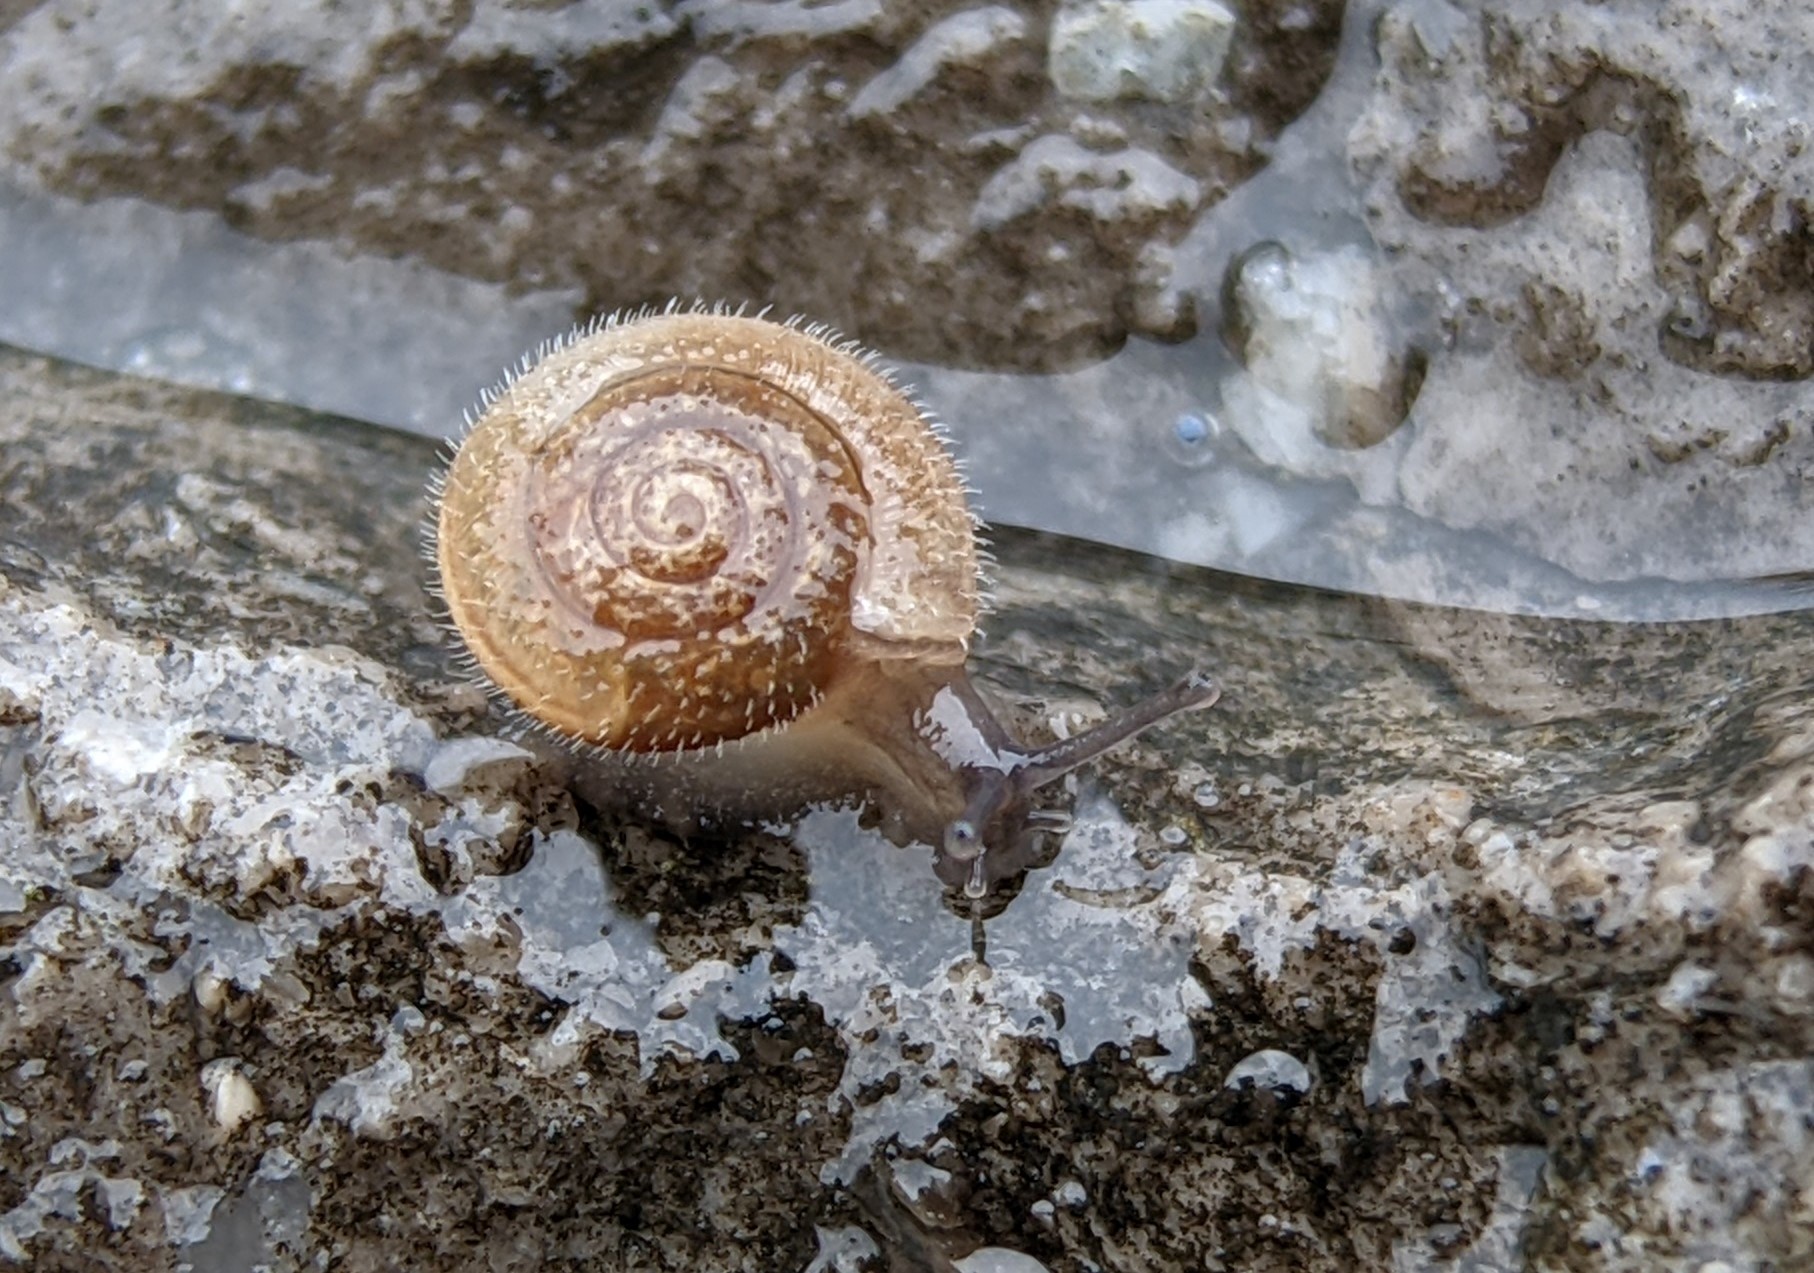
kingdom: Animalia
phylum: Mollusca
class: Gastropoda
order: Stylommatophora
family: Hygromiidae
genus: Trochulus
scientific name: Trochulus hispidus
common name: Hairy snail
